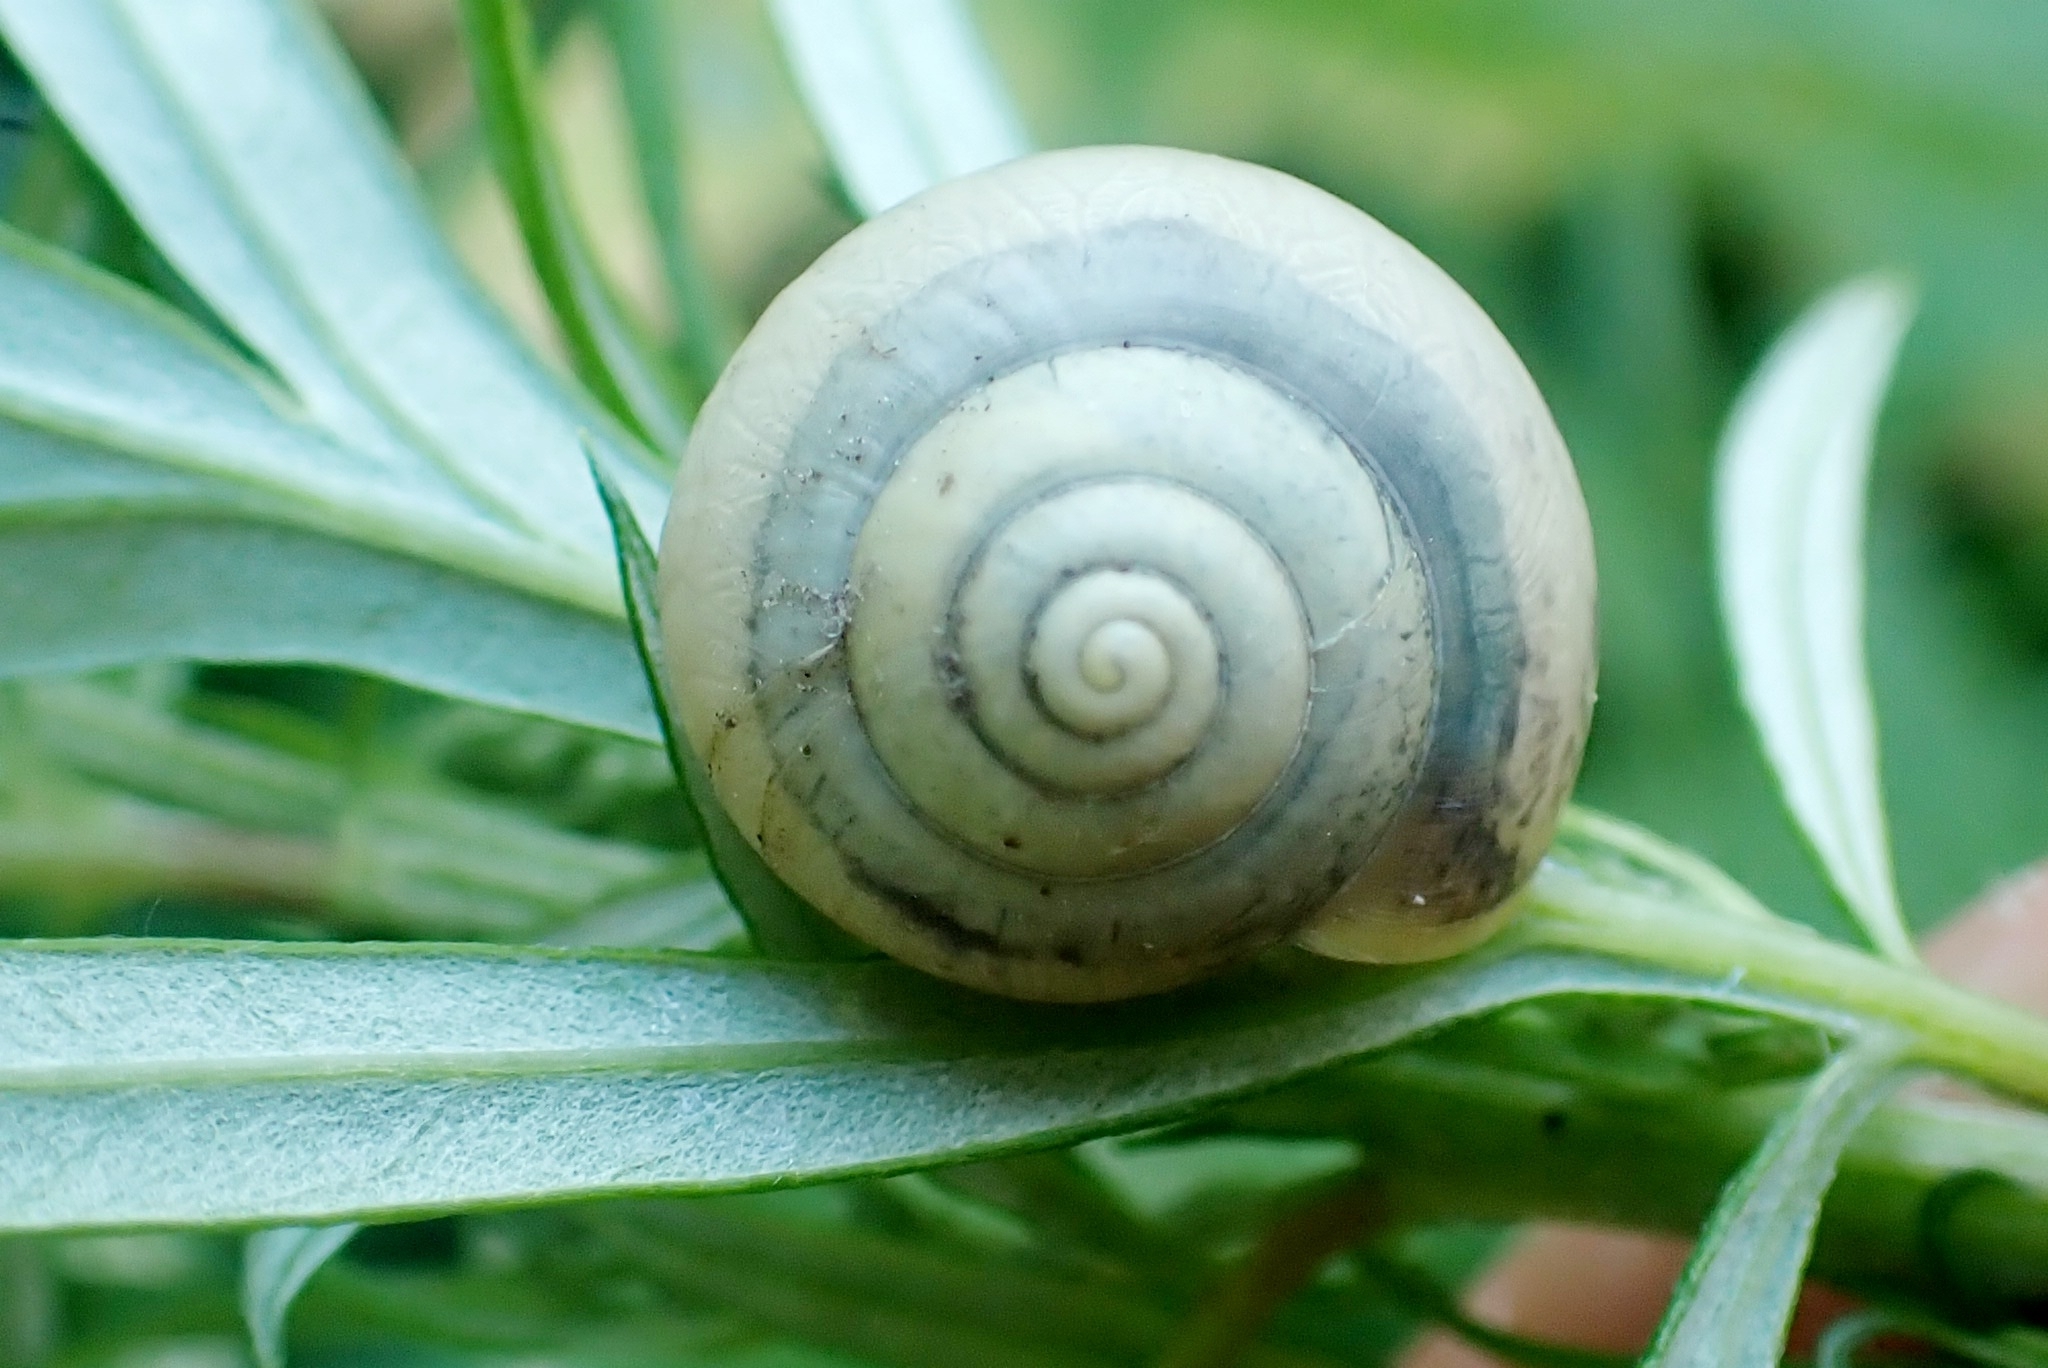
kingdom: Animalia
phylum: Mollusca
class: Gastropoda
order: Stylommatophora
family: Camaenidae
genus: Fruticicola
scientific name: Fruticicola fruticum
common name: Bush snail
